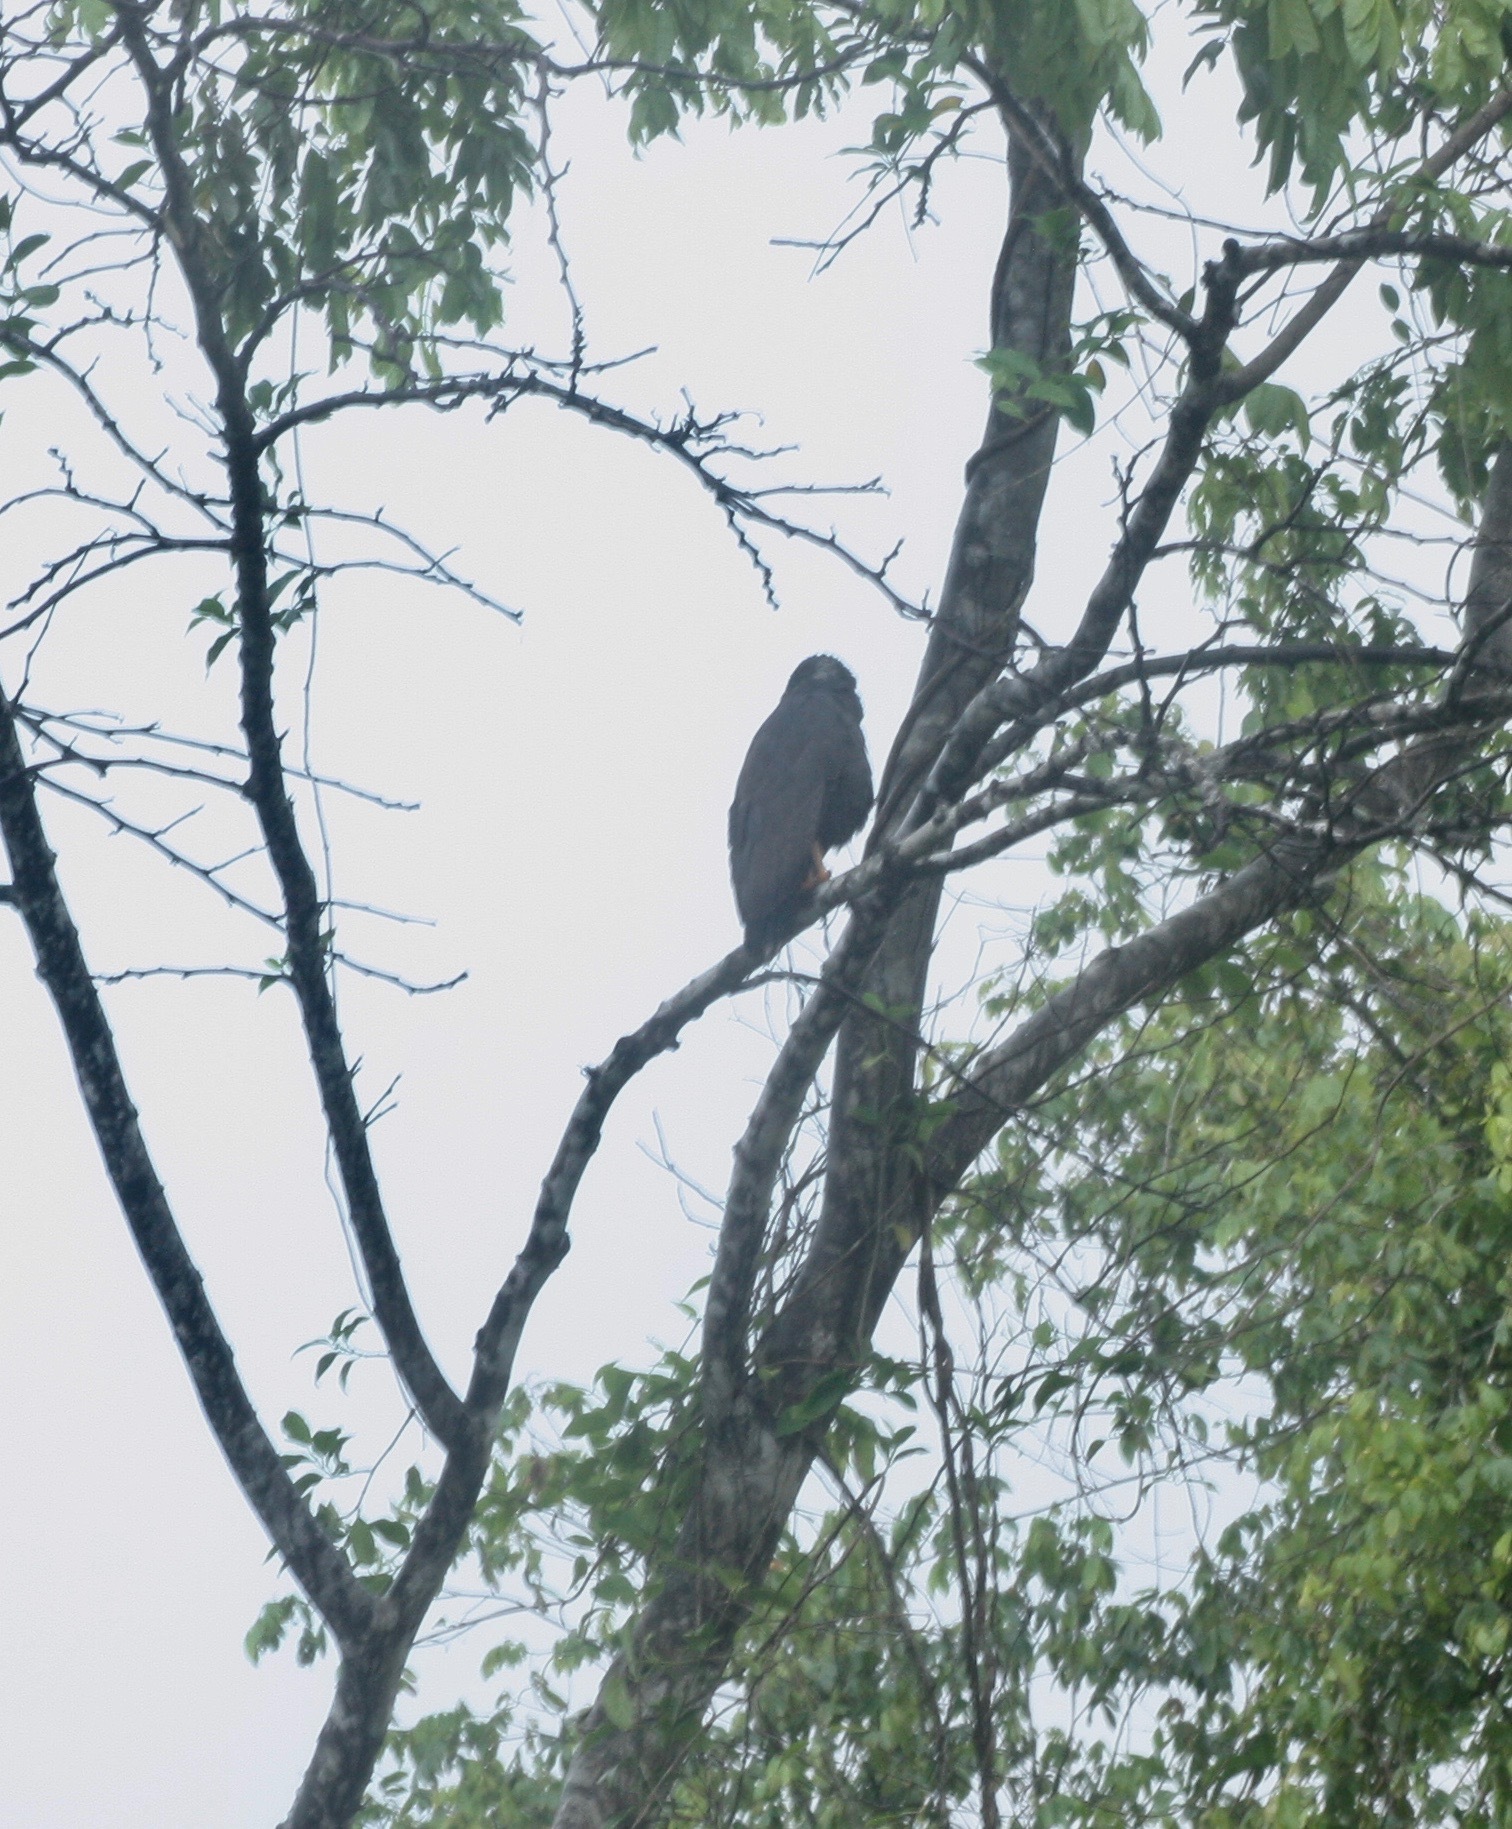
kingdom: Animalia
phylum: Chordata
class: Aves
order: Accipitriformes
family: Accipitridae
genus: Buteogallus
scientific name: Buteogallus anthracinus
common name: Common black hawk
